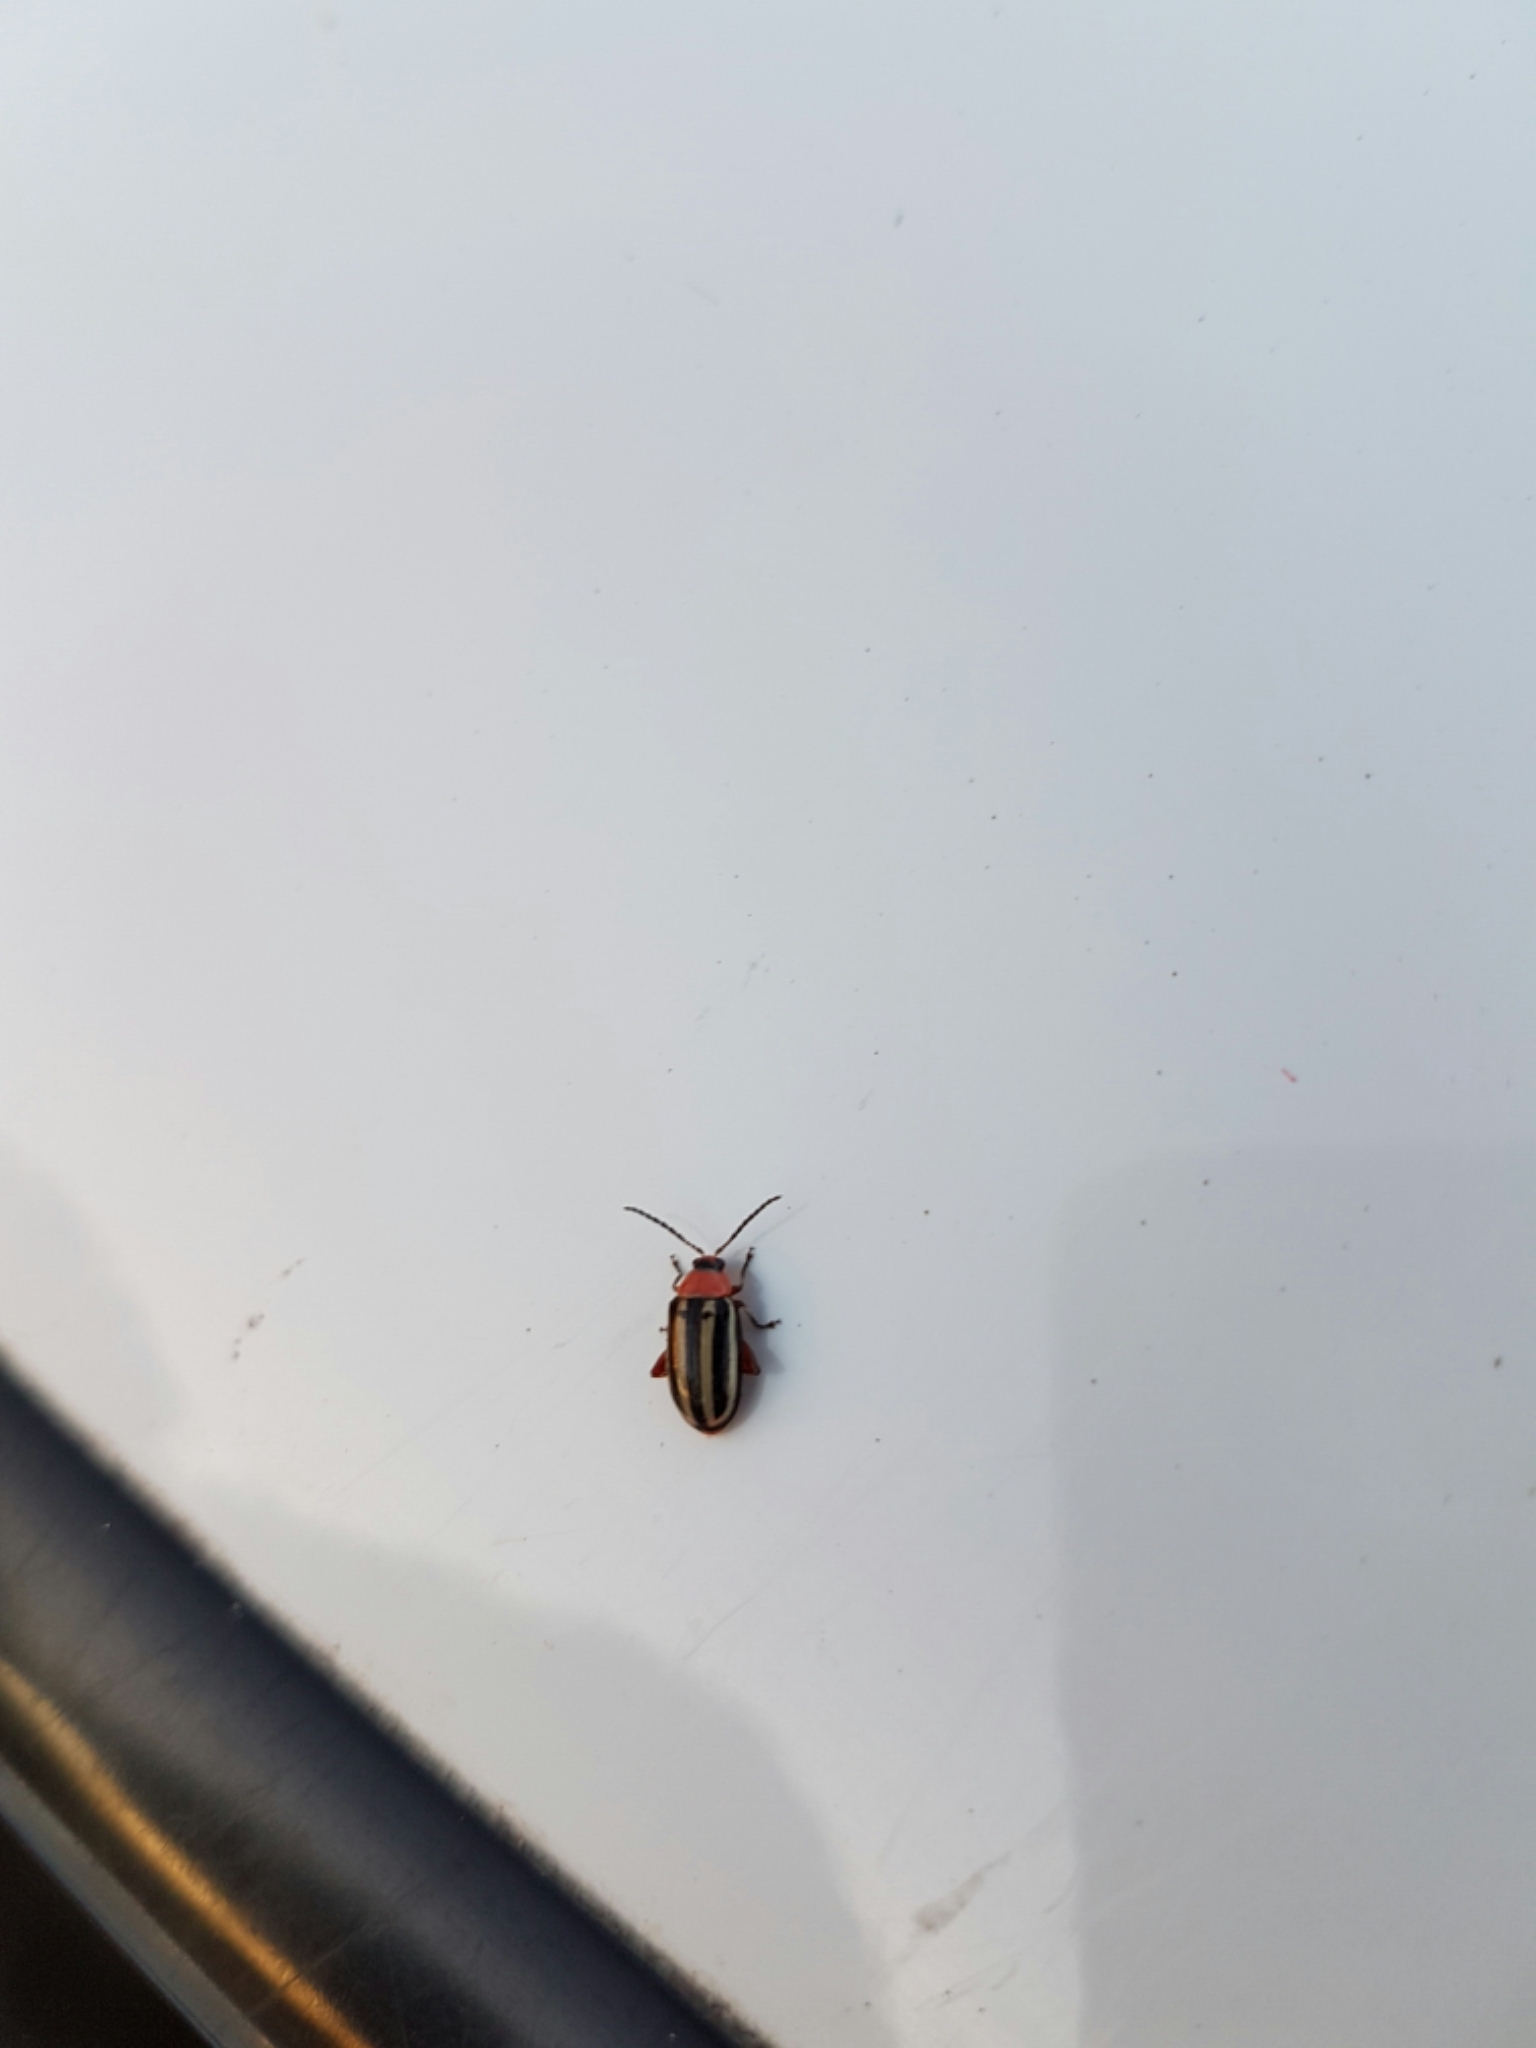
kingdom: Animalia
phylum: Arthropoda
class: Insecta
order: Coleoptera
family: Chrysomelidae
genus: Disonycha
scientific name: Disonycha glabrata
